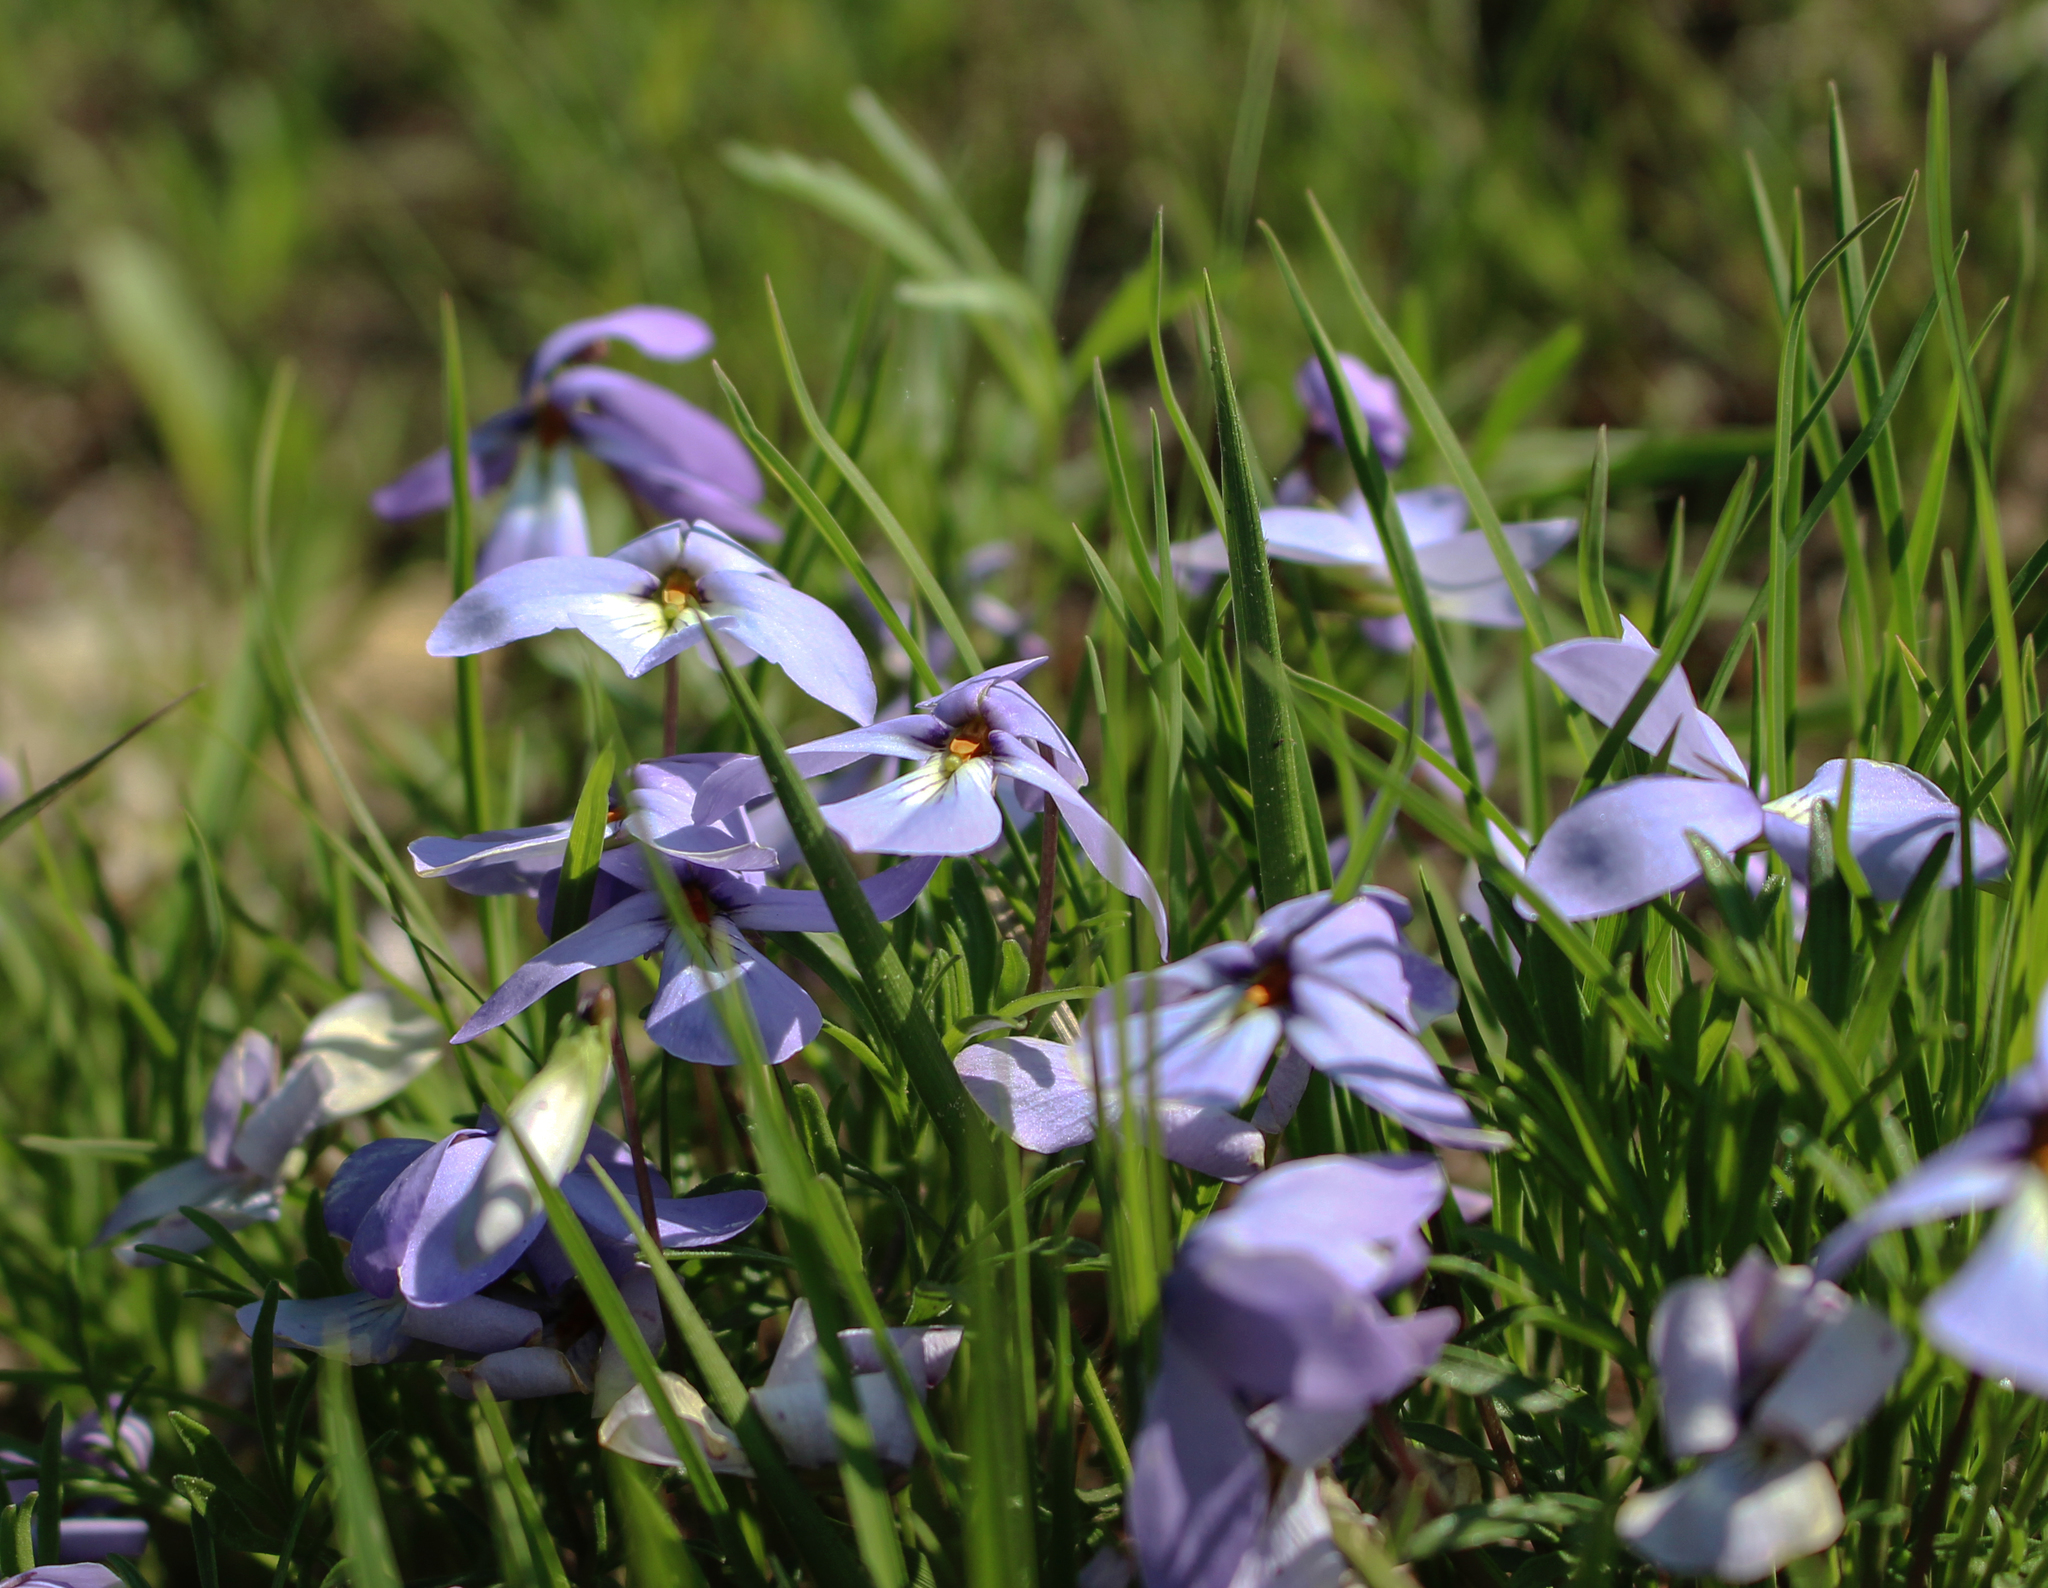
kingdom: Plantae
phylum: Tracheophyta
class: Magnoliopsida
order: Malpighiales
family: Violaceae
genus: Viola
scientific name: Viola pedata
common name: Pansy violet
